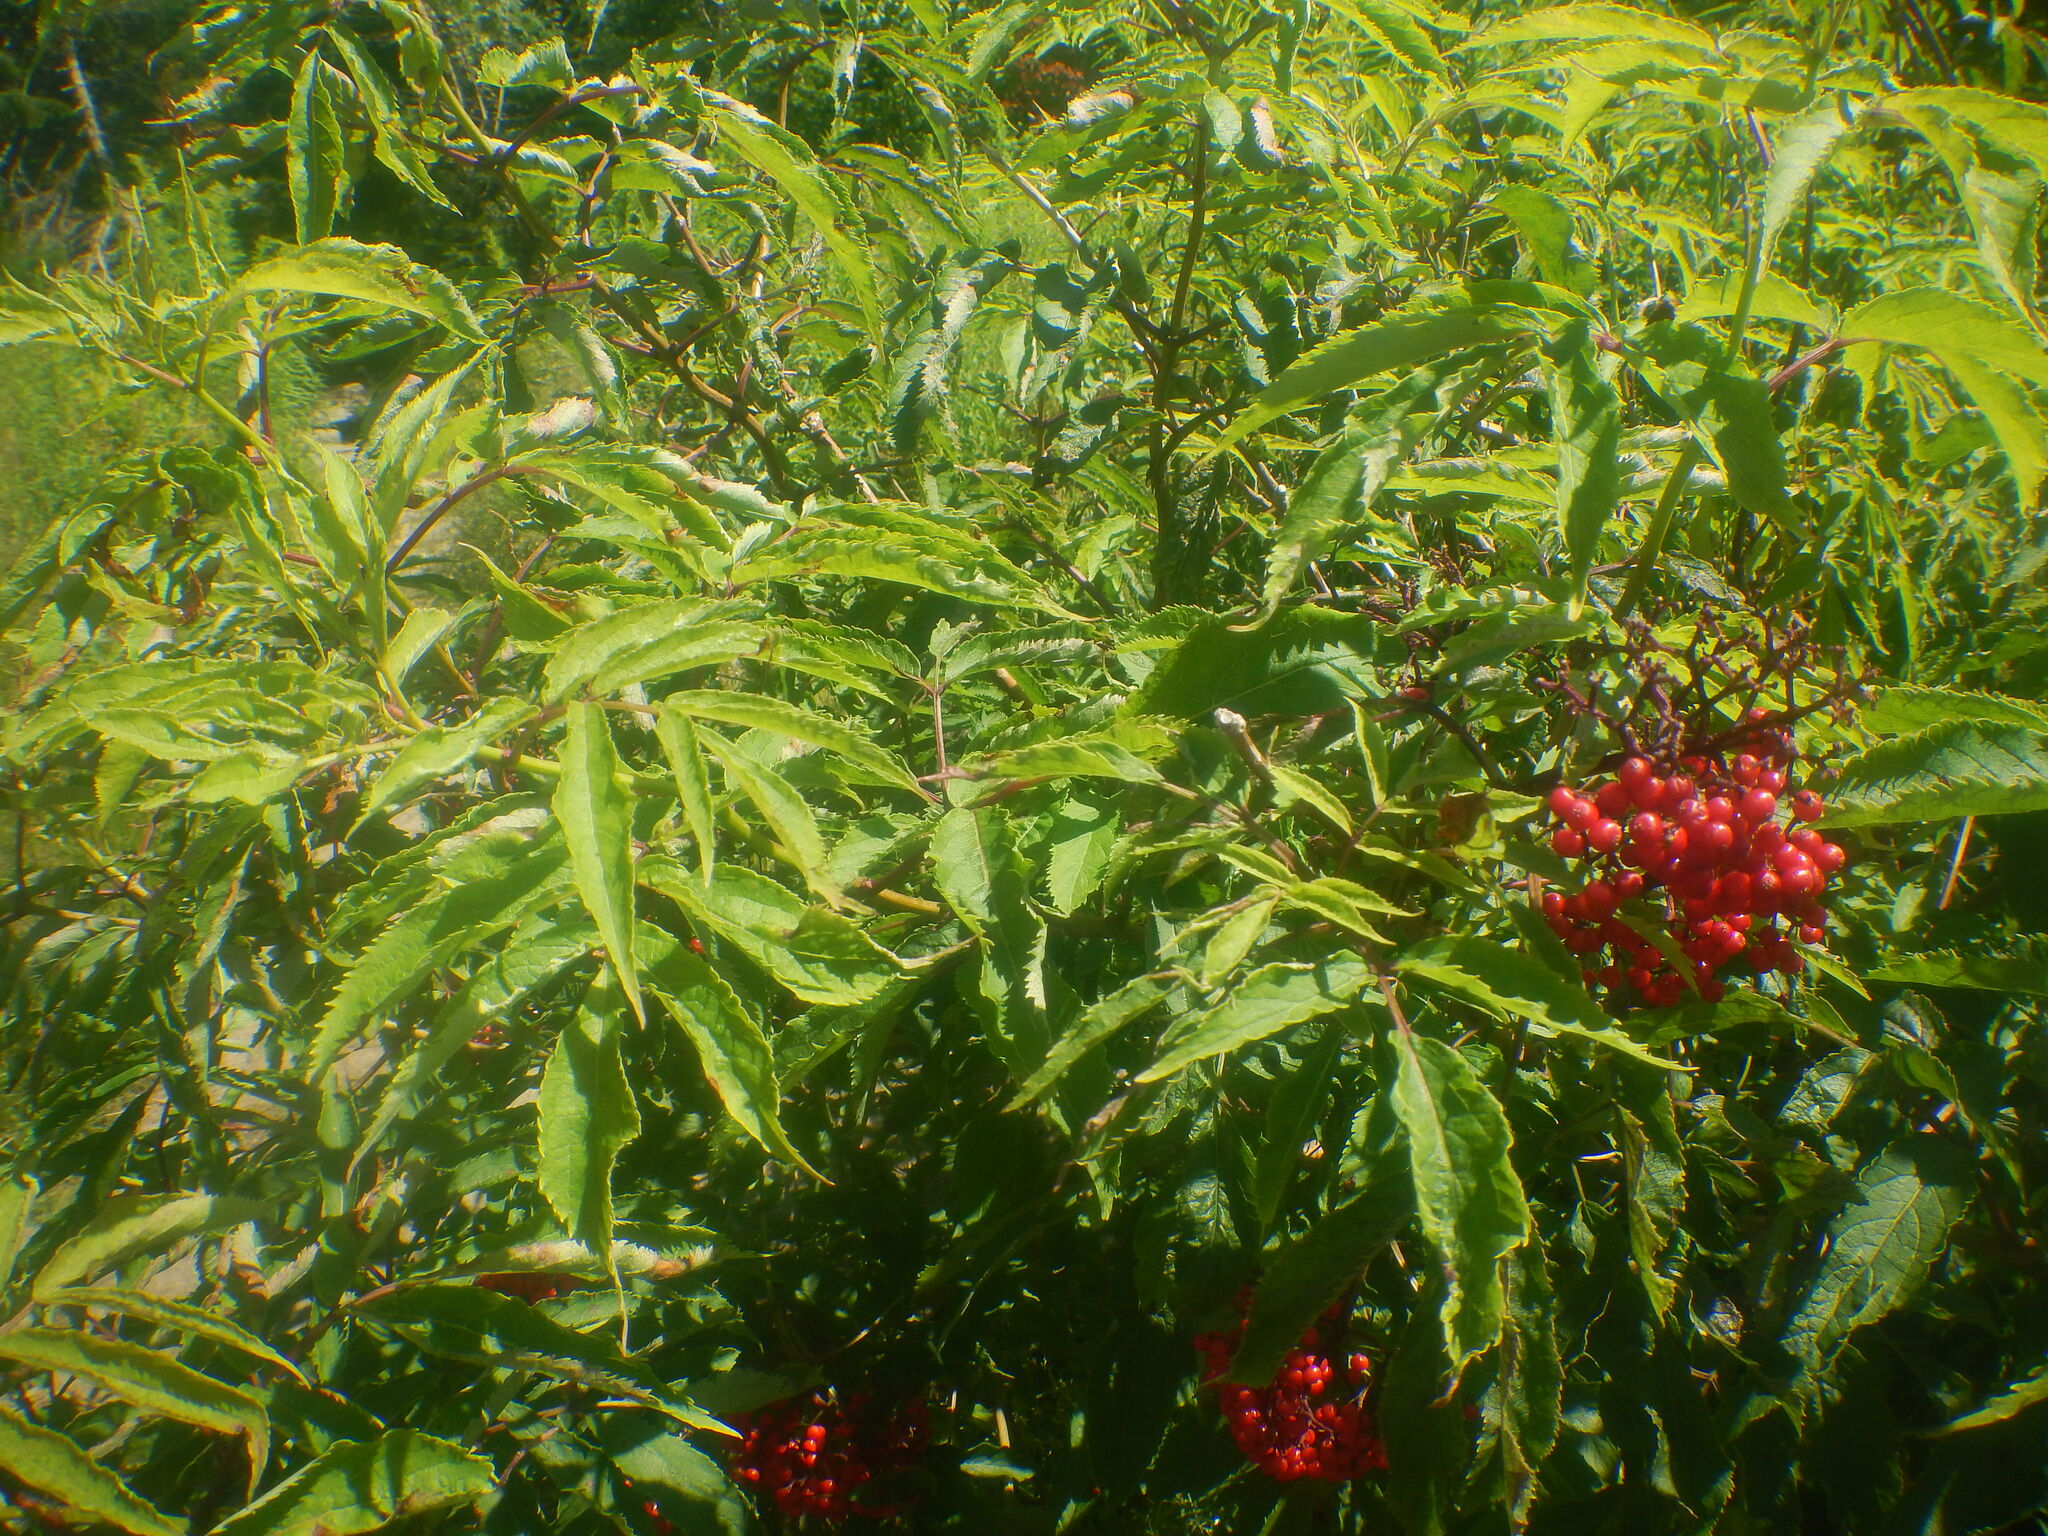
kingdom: Plantae
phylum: Tracheophyta
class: Magnoliopsida
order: Dipsacales
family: Viburnaceae
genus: Sambucus
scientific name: Sambucus racemosa
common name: Red-berried elder
